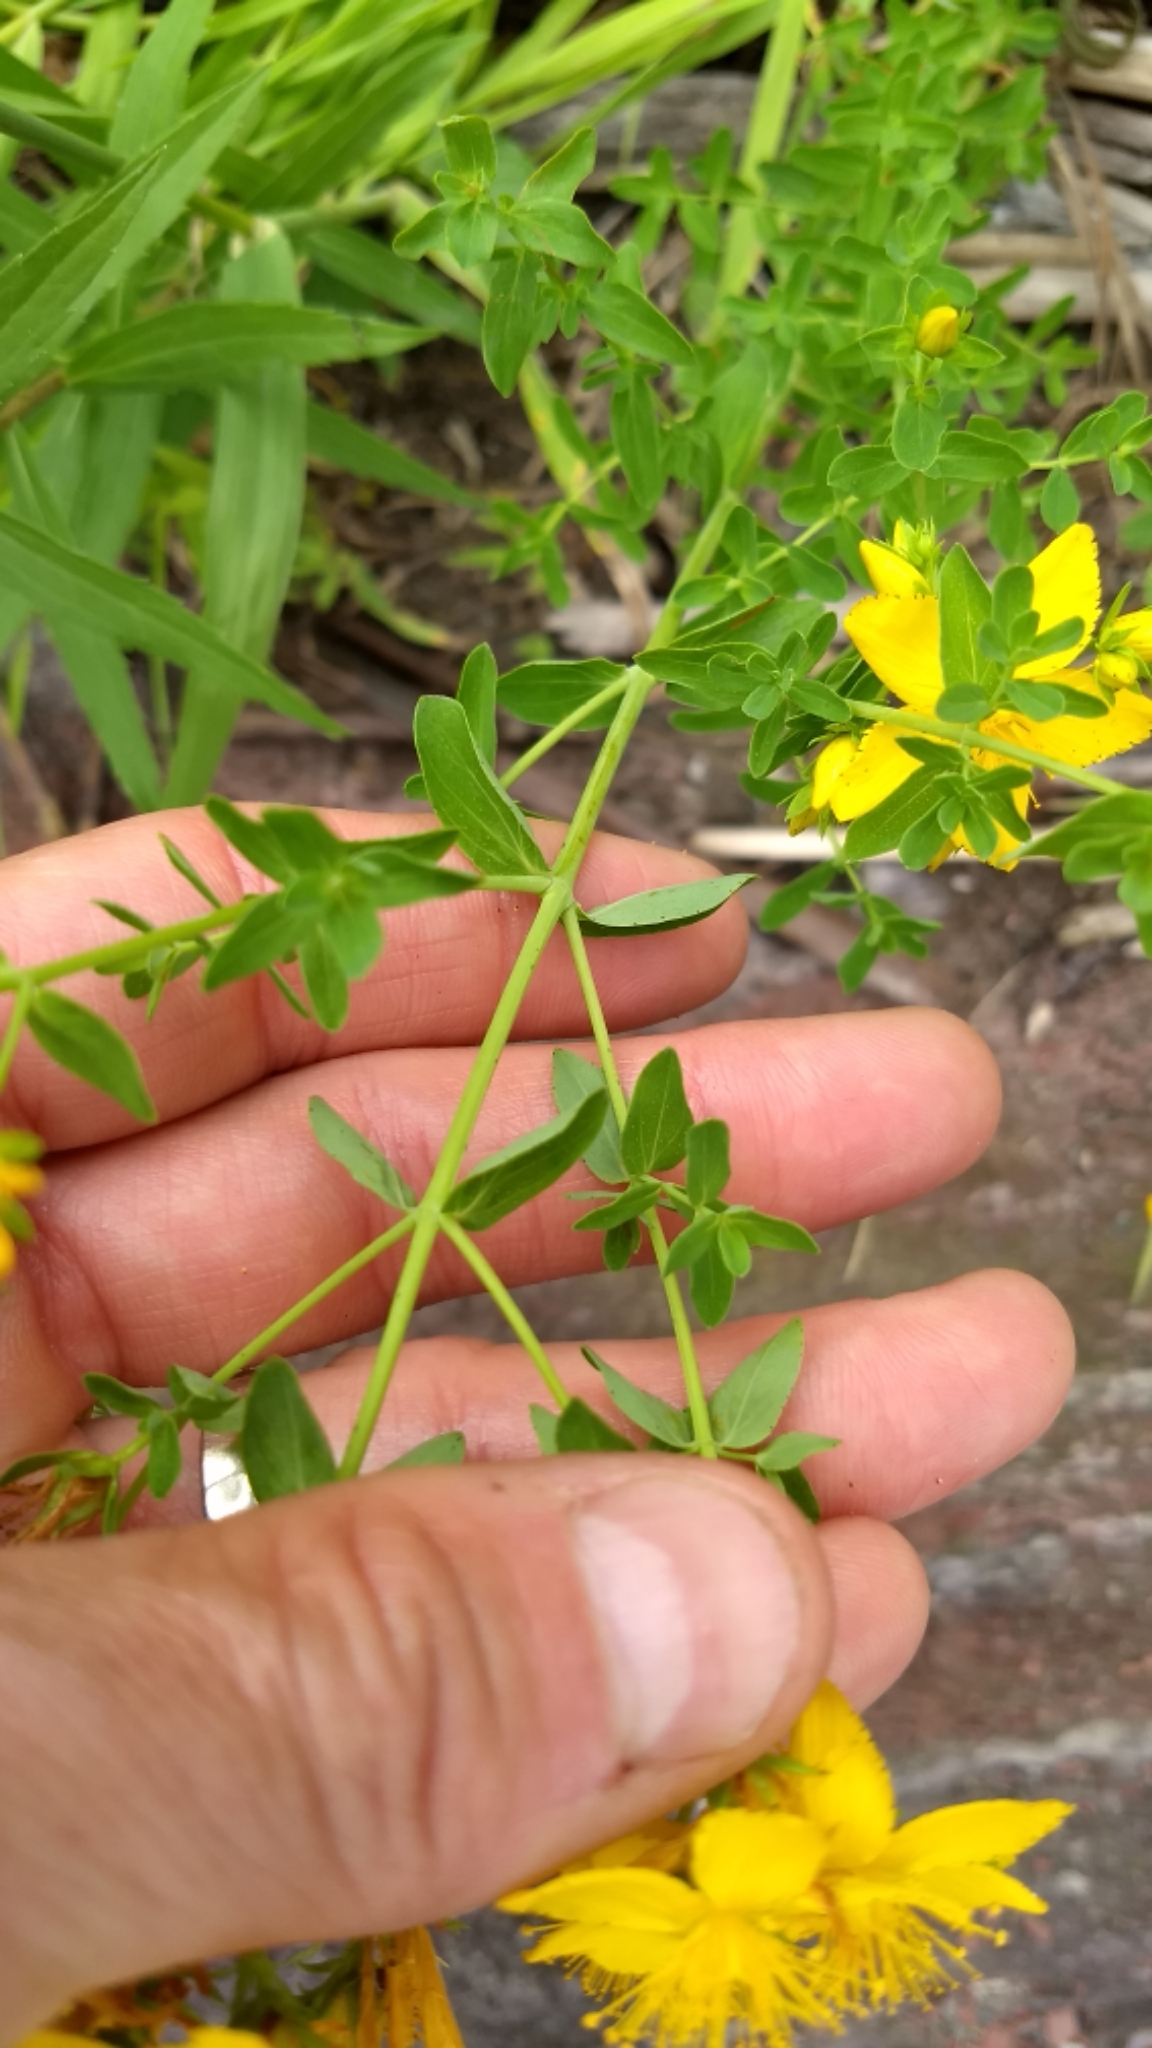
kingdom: Plantae
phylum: Tracheophyta
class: Magnoliopsida
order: Malpighiales
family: Hypericaceae
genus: Hypericum
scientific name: Hypericum perforatum
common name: Common st. johnswort
